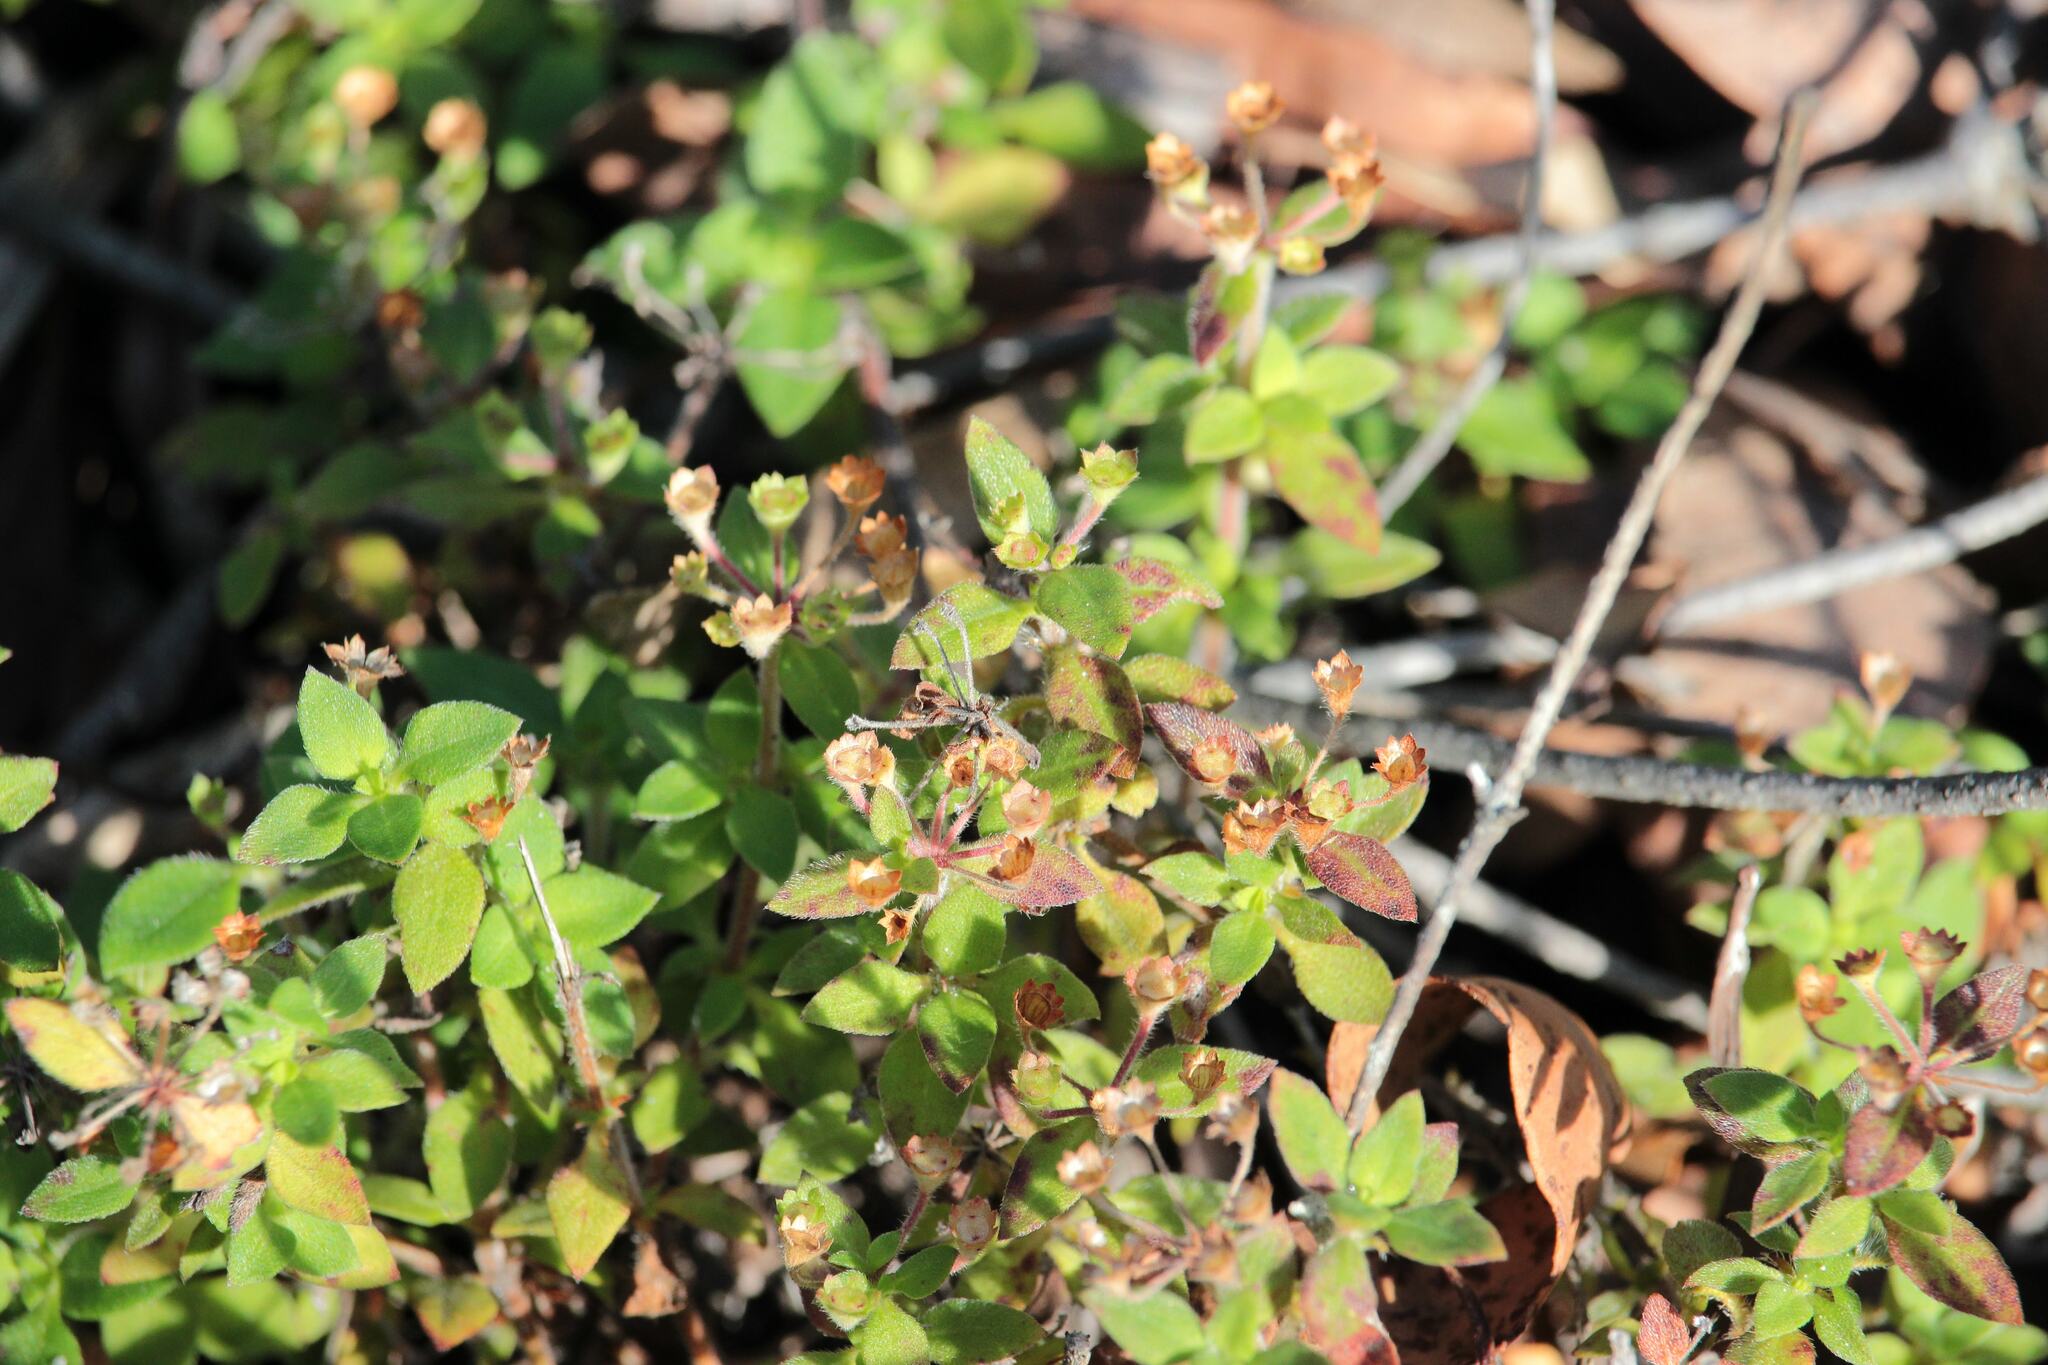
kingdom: Plantae
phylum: Tracheophyta
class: Magnoliopsida
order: Gentianales
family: Rubiaceae
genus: Pomax
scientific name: Pomax umbellata
